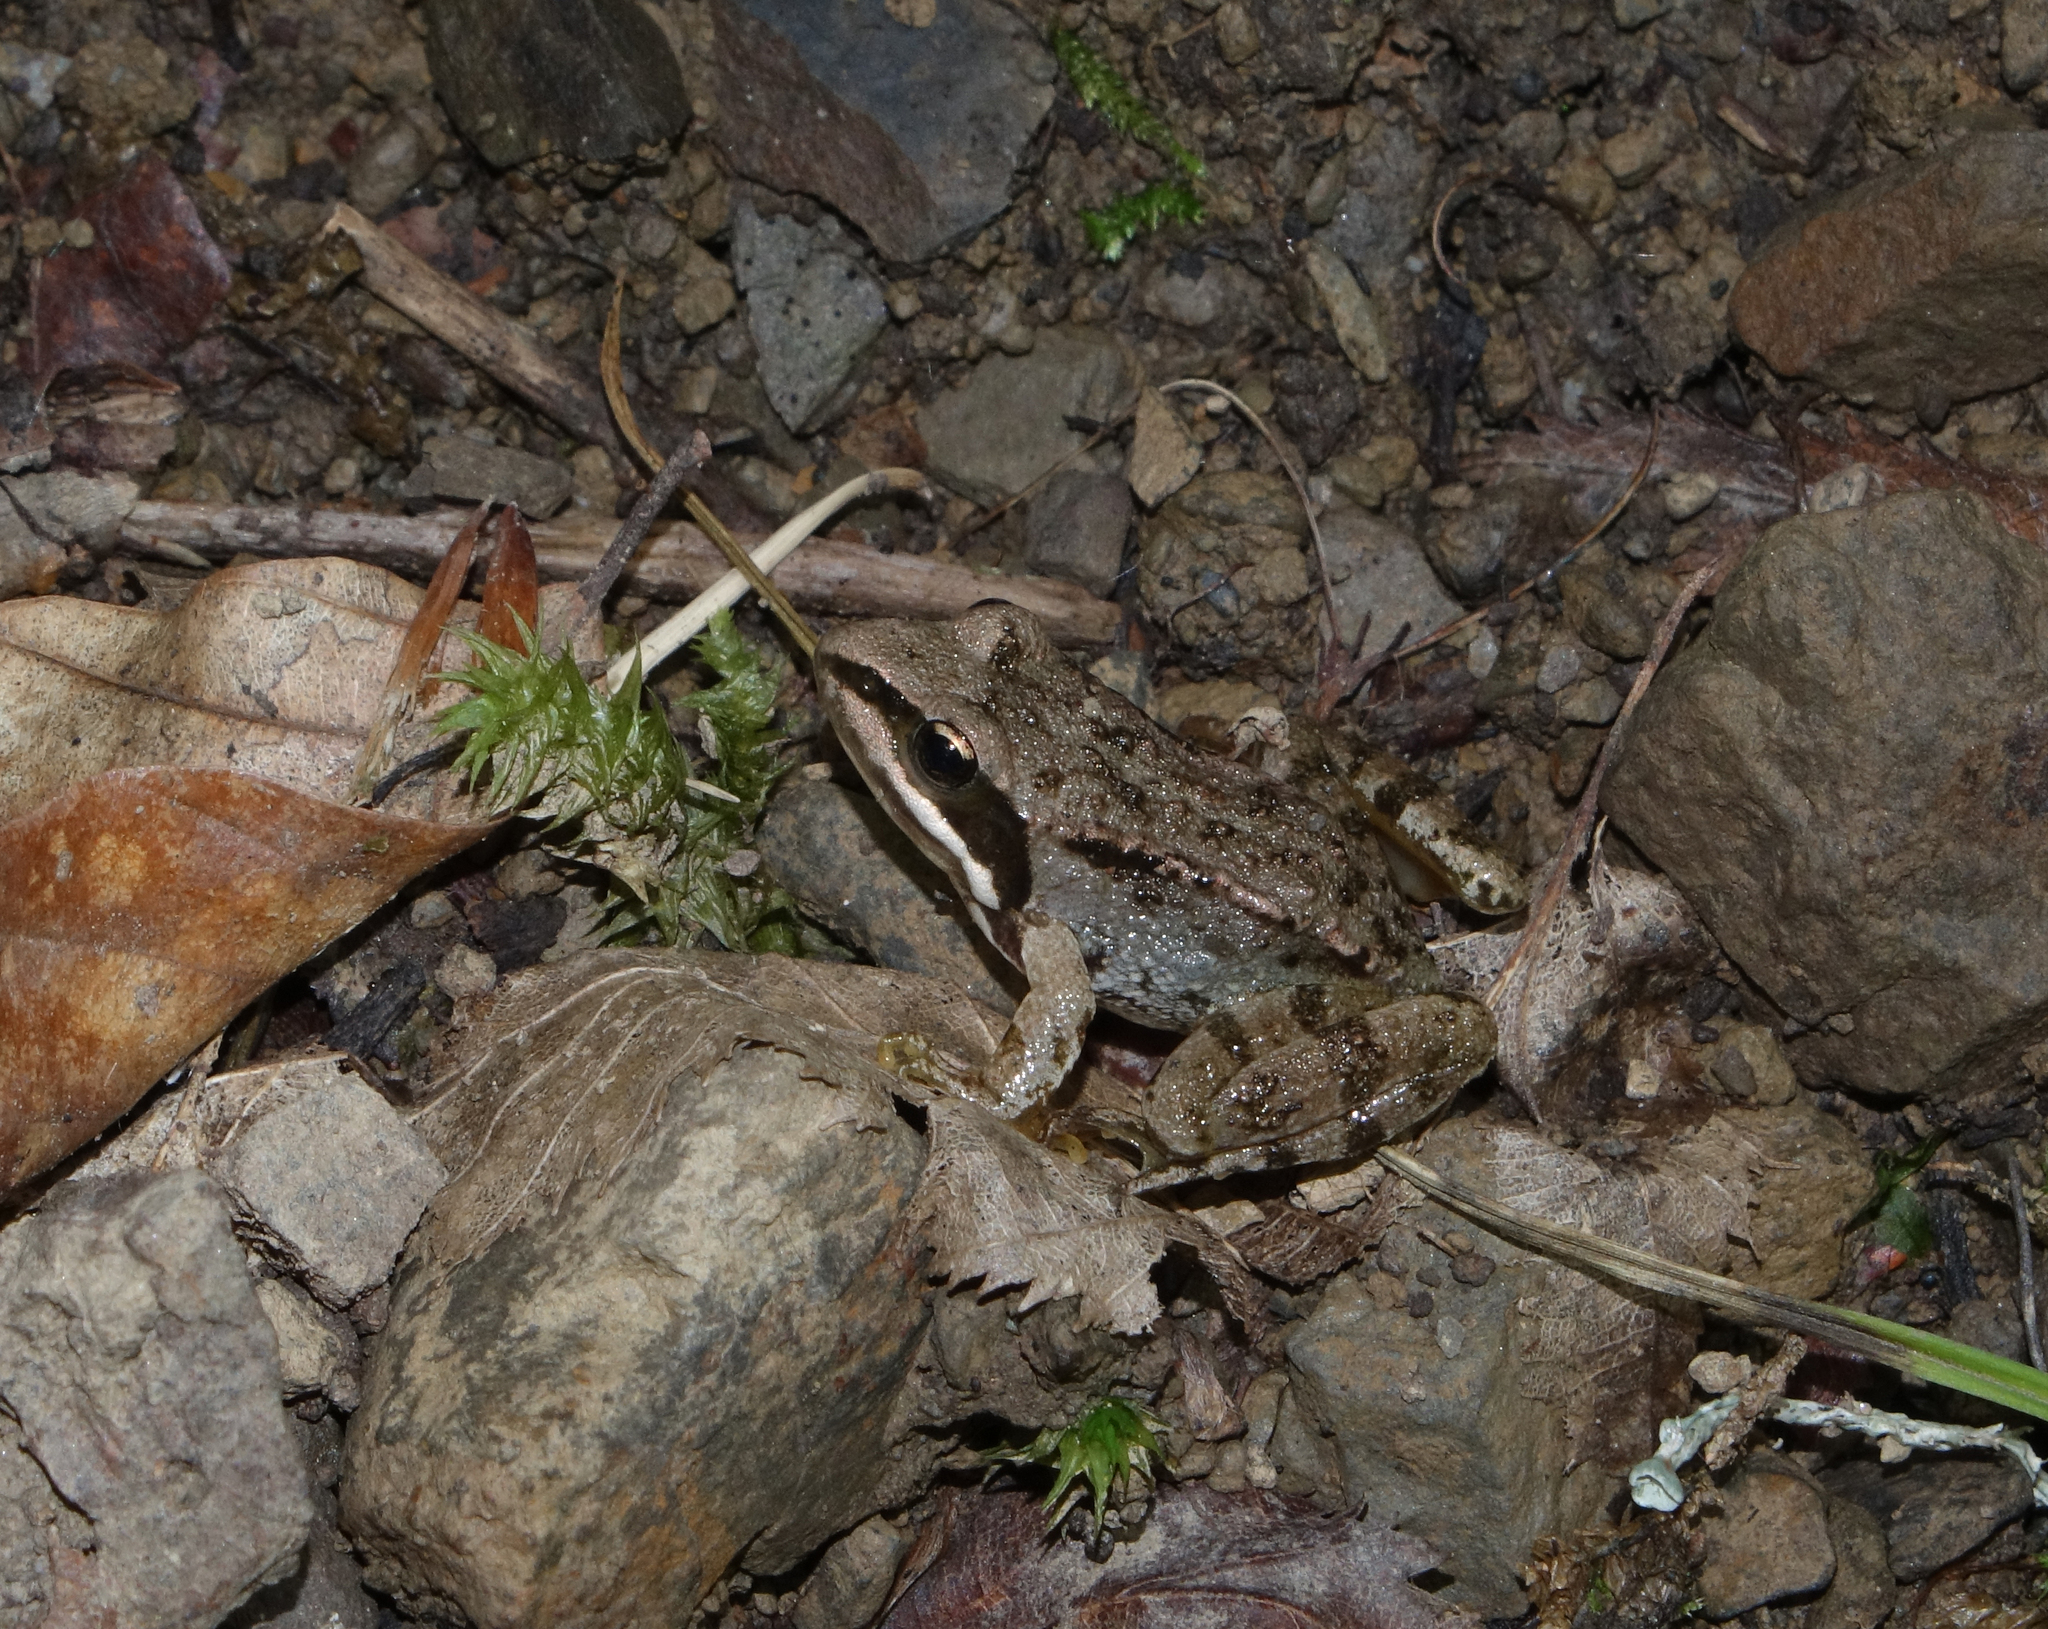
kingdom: Animalia
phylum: Chordata
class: Amphibia
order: Anura
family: Ranidae
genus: Rana
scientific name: Rana macrocnemis
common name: Banded frog
